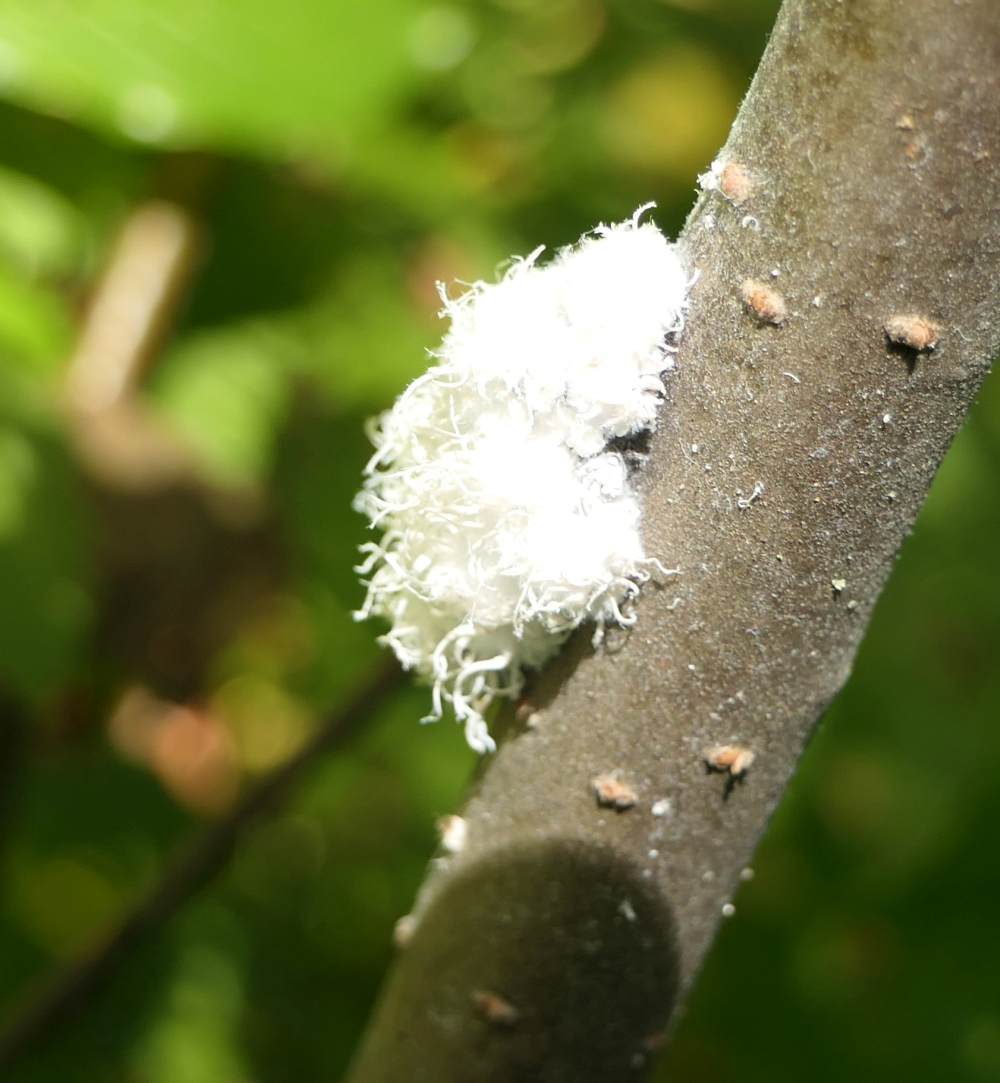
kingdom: Animalia
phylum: Arthropoda
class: Insecta
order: Hymenoptera
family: Tenthredinidae
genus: Eriocampa
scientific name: Eriocampa ovata
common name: Alder wooly sawfly
